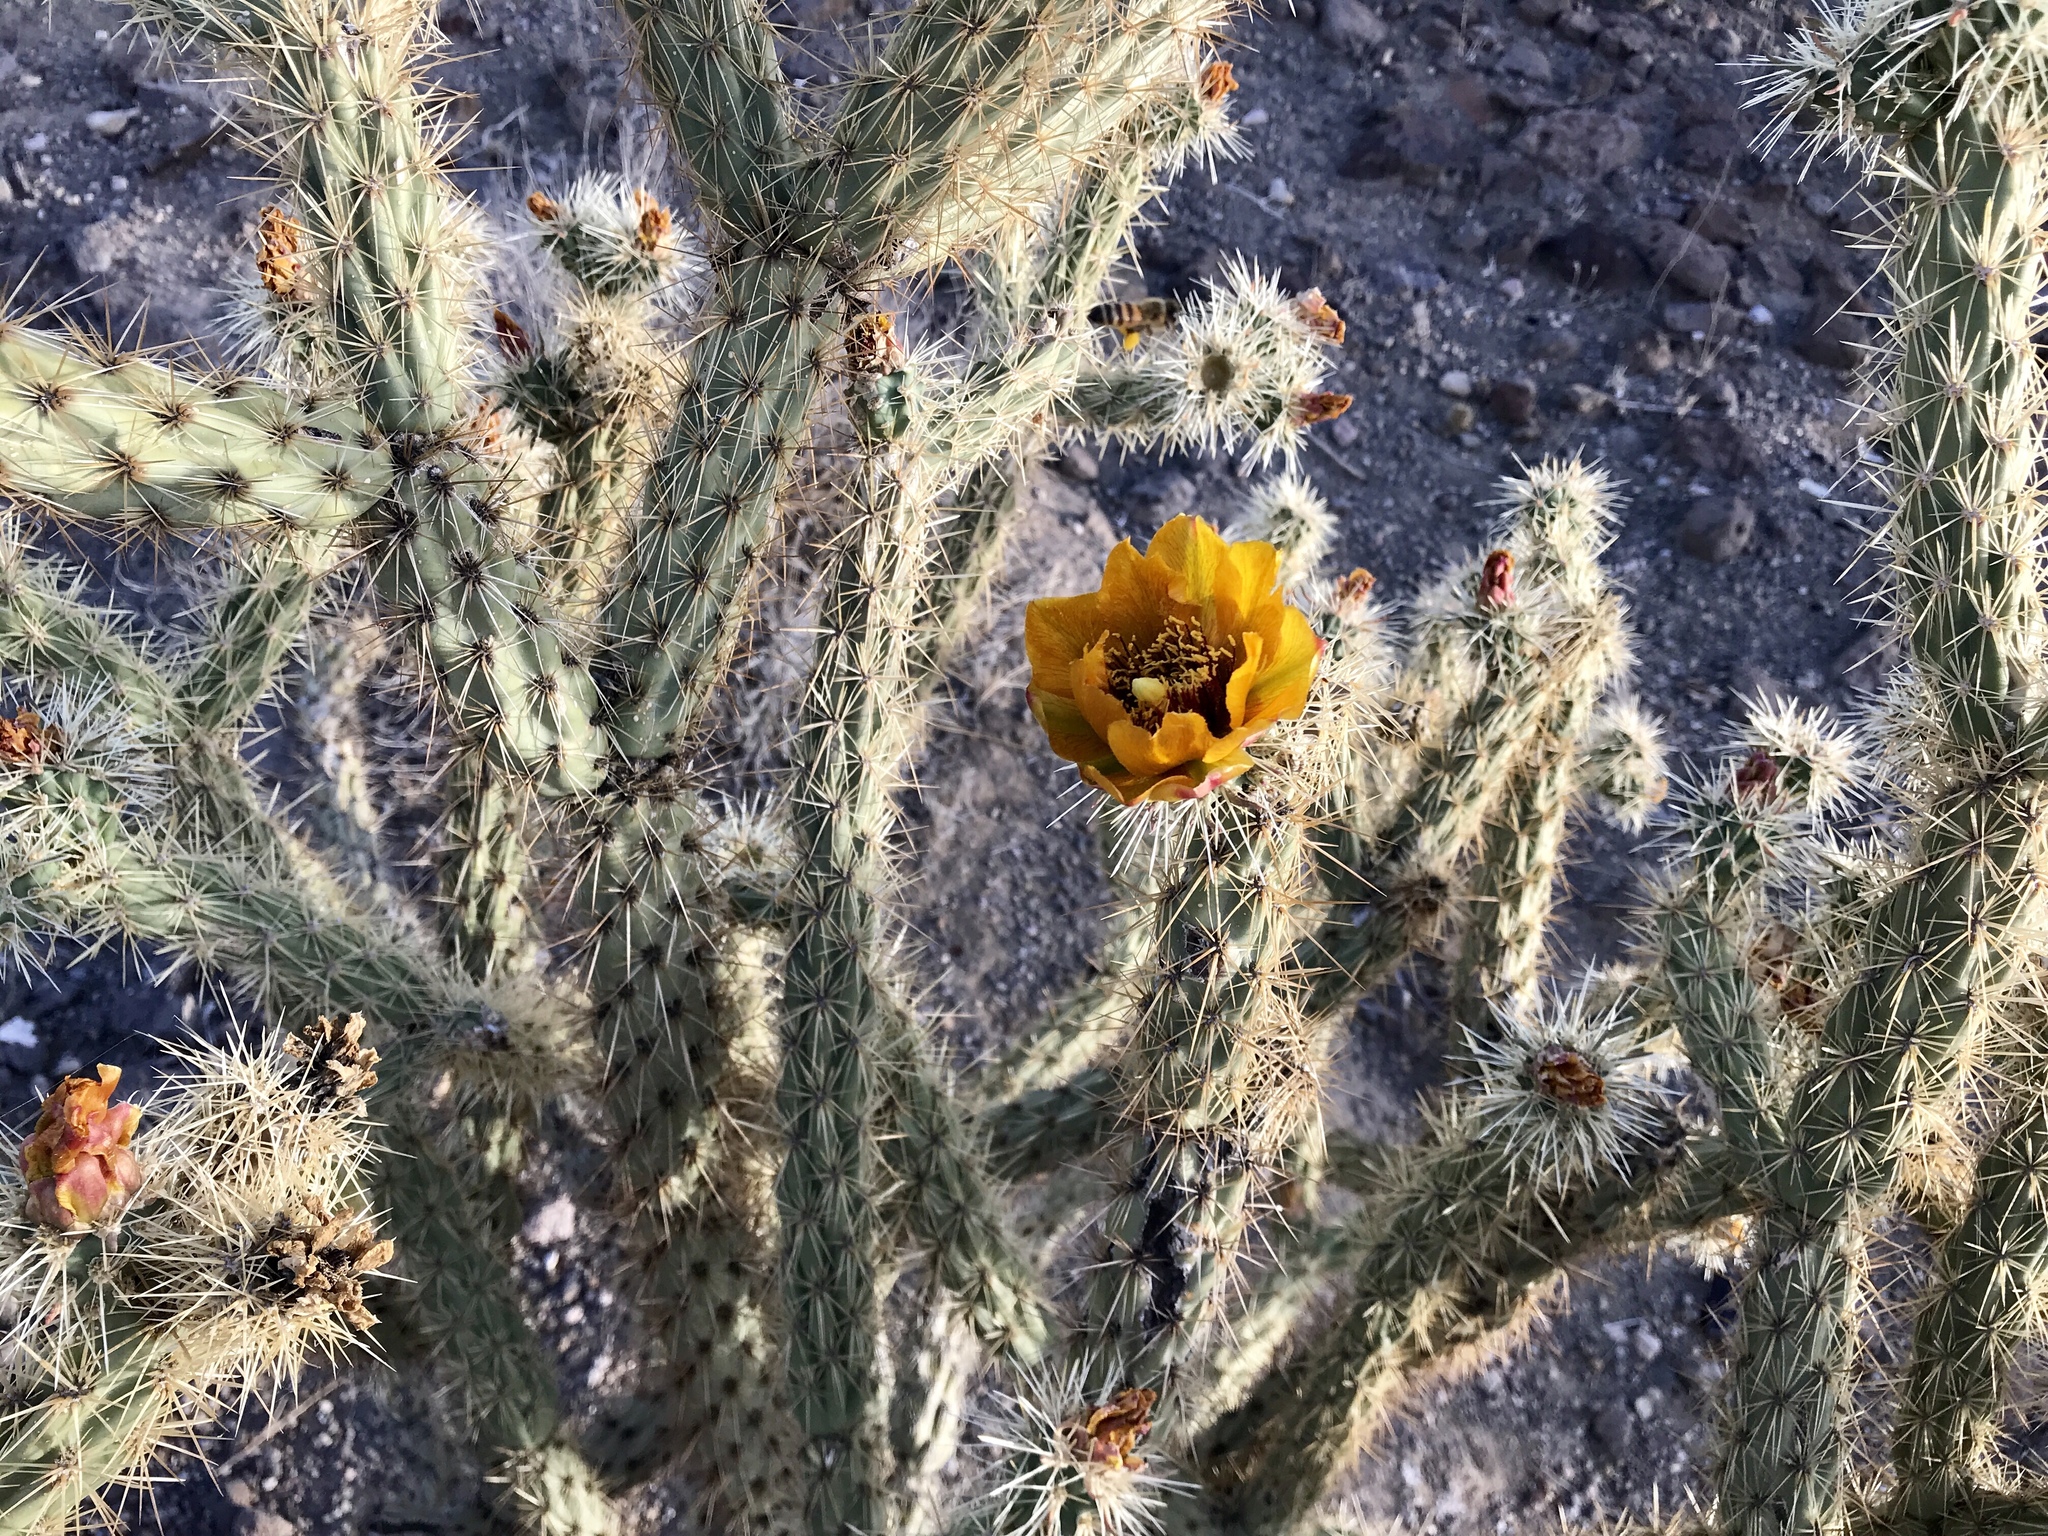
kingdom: Plantae
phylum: Tracheophyta
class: Magnoliopsida
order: Caryophyllales
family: Cactaceae
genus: Cylindropuntia
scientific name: Cylindropuntia acanthocarpa
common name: Buckhorn cholla
